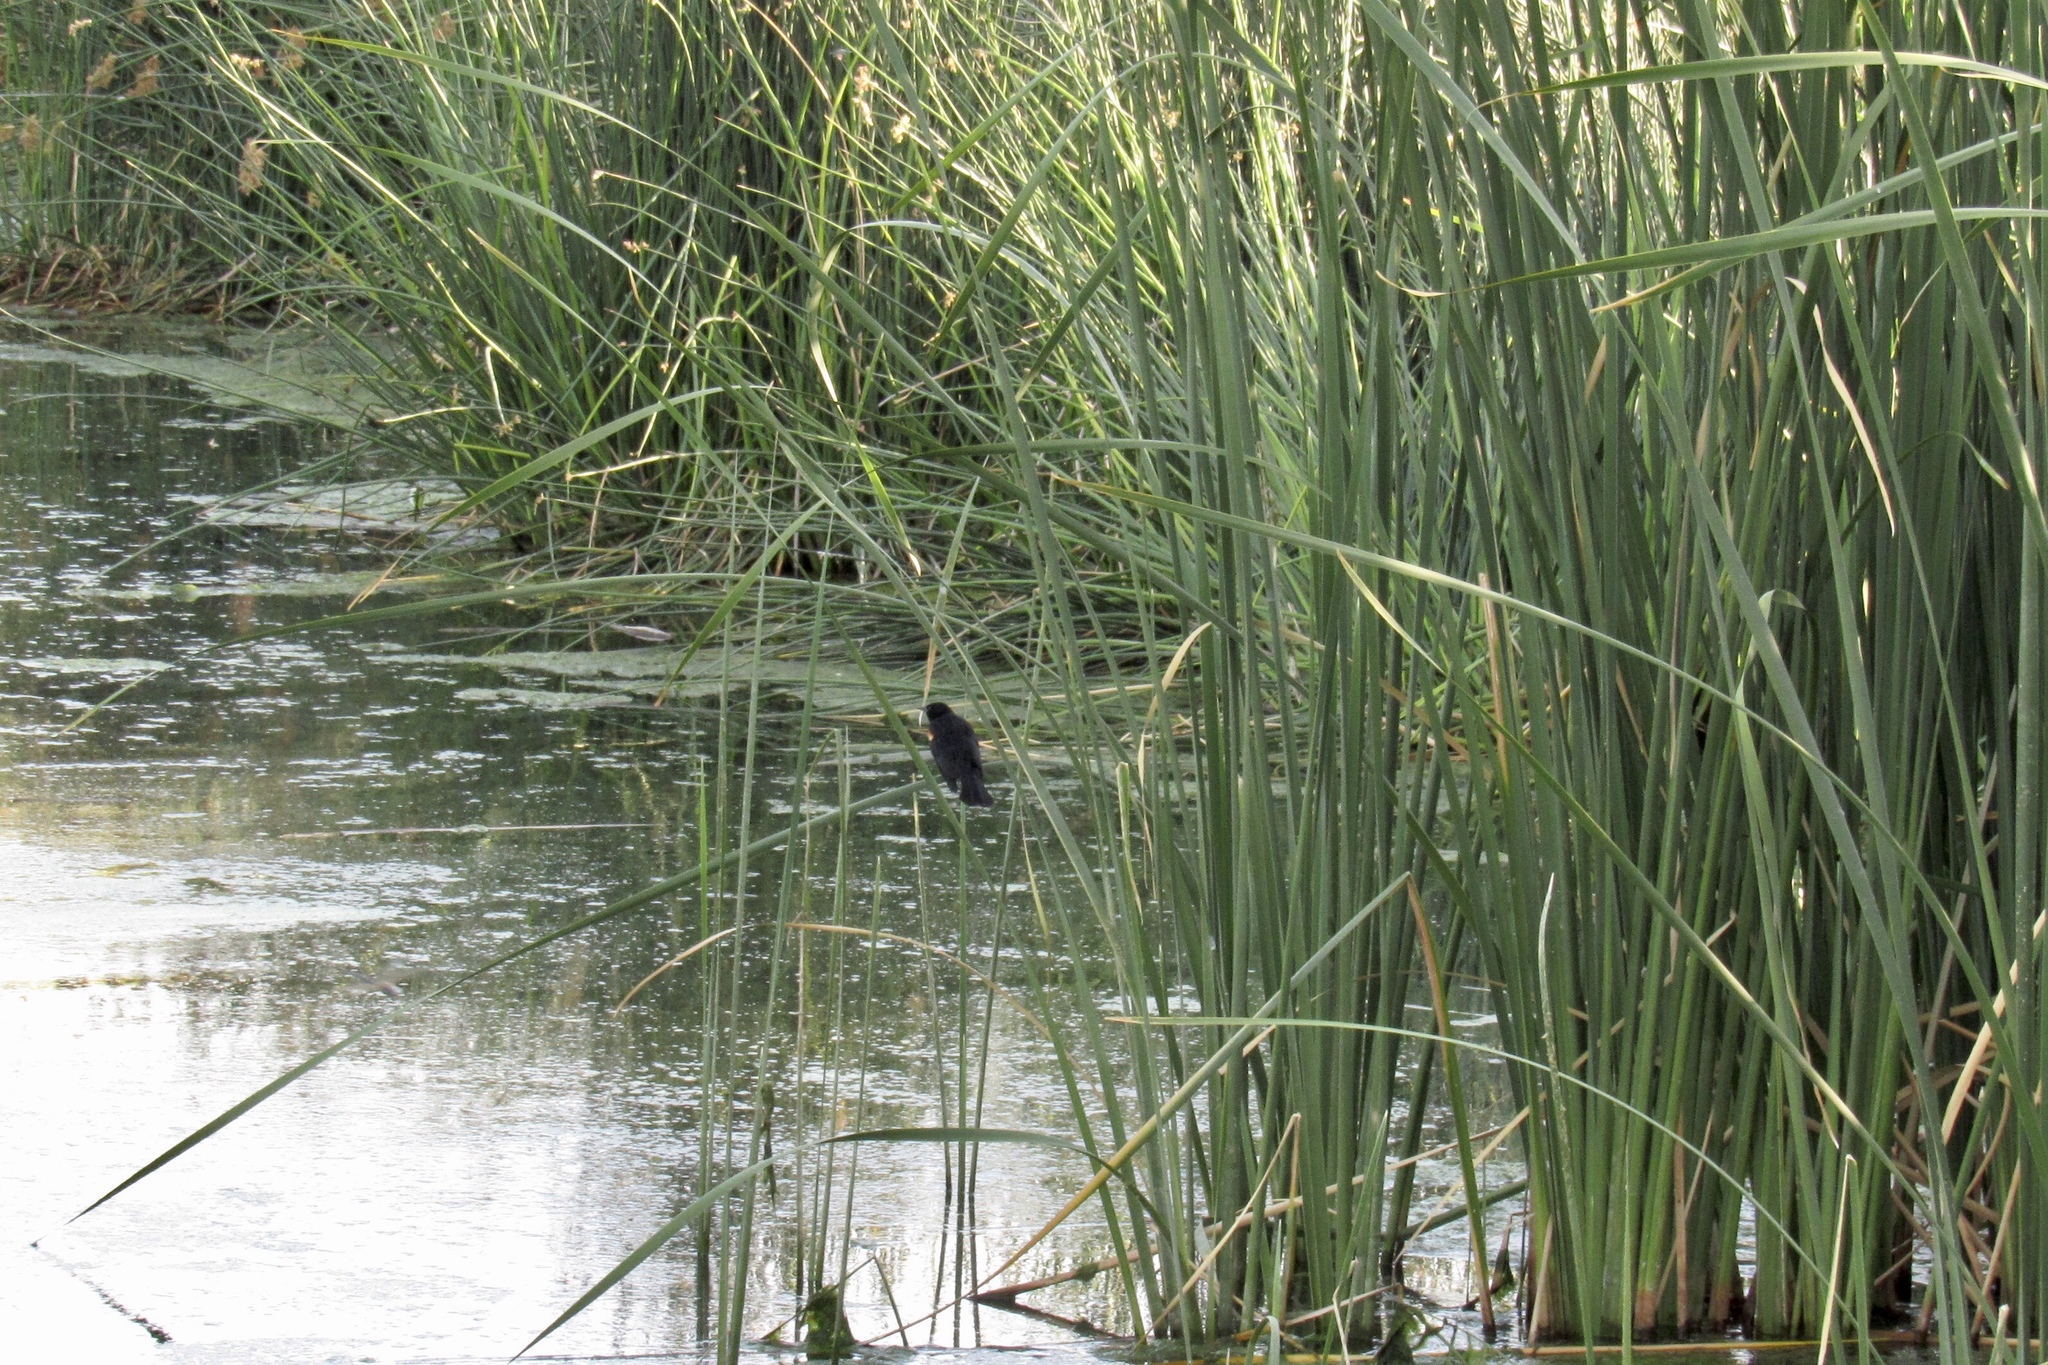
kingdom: Animalia
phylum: Chordata
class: Aves
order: Passeriformes
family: Icteridae
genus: Agelaius
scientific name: Agelaius phoeniceus
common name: Red-winged blackbird
